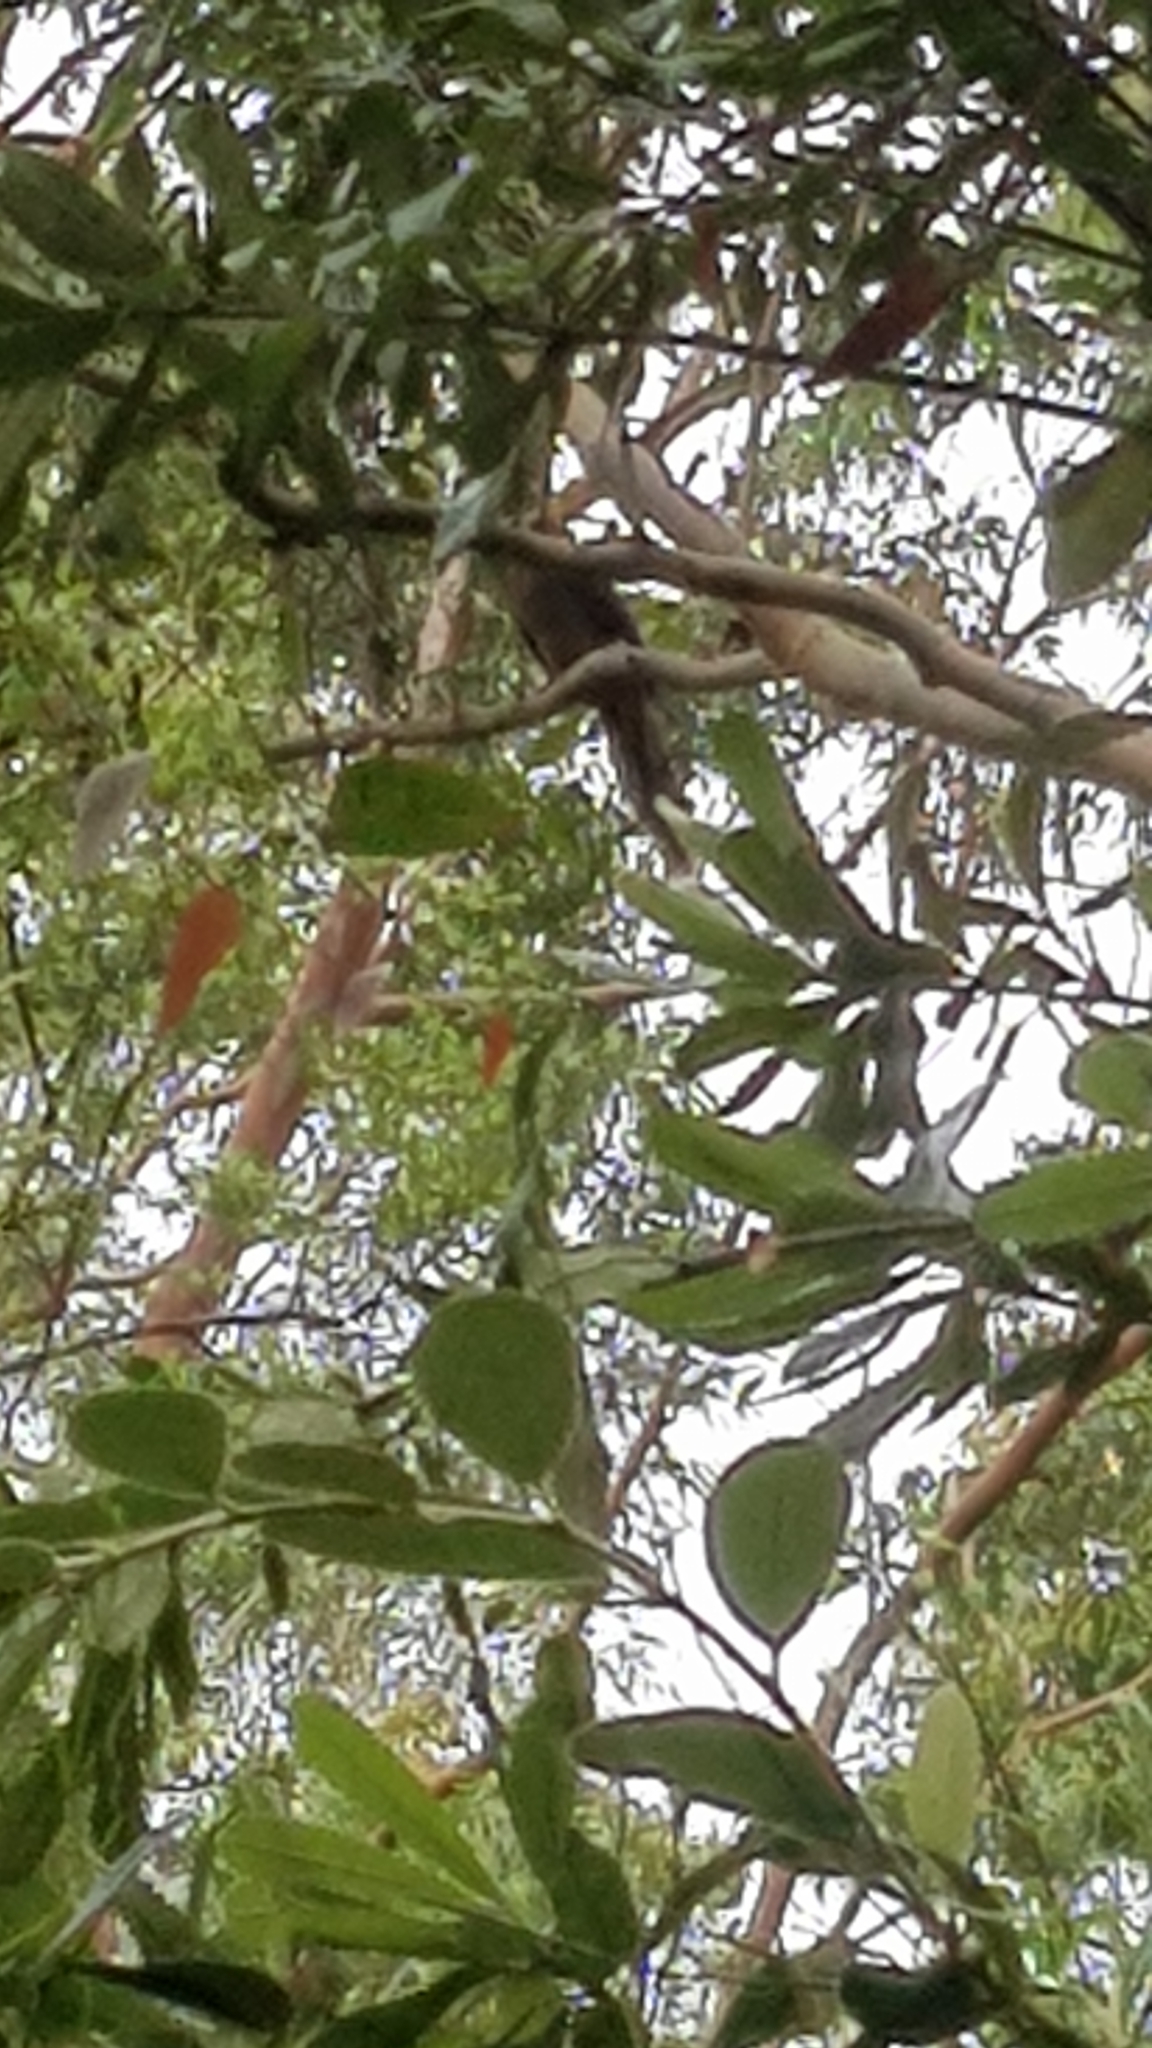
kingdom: Animalia
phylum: Chordata
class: Aves
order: Columbiformes
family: Columbidae
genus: Macropygia
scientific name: Macropygia phasianella
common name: Brown cuckoo-dove
